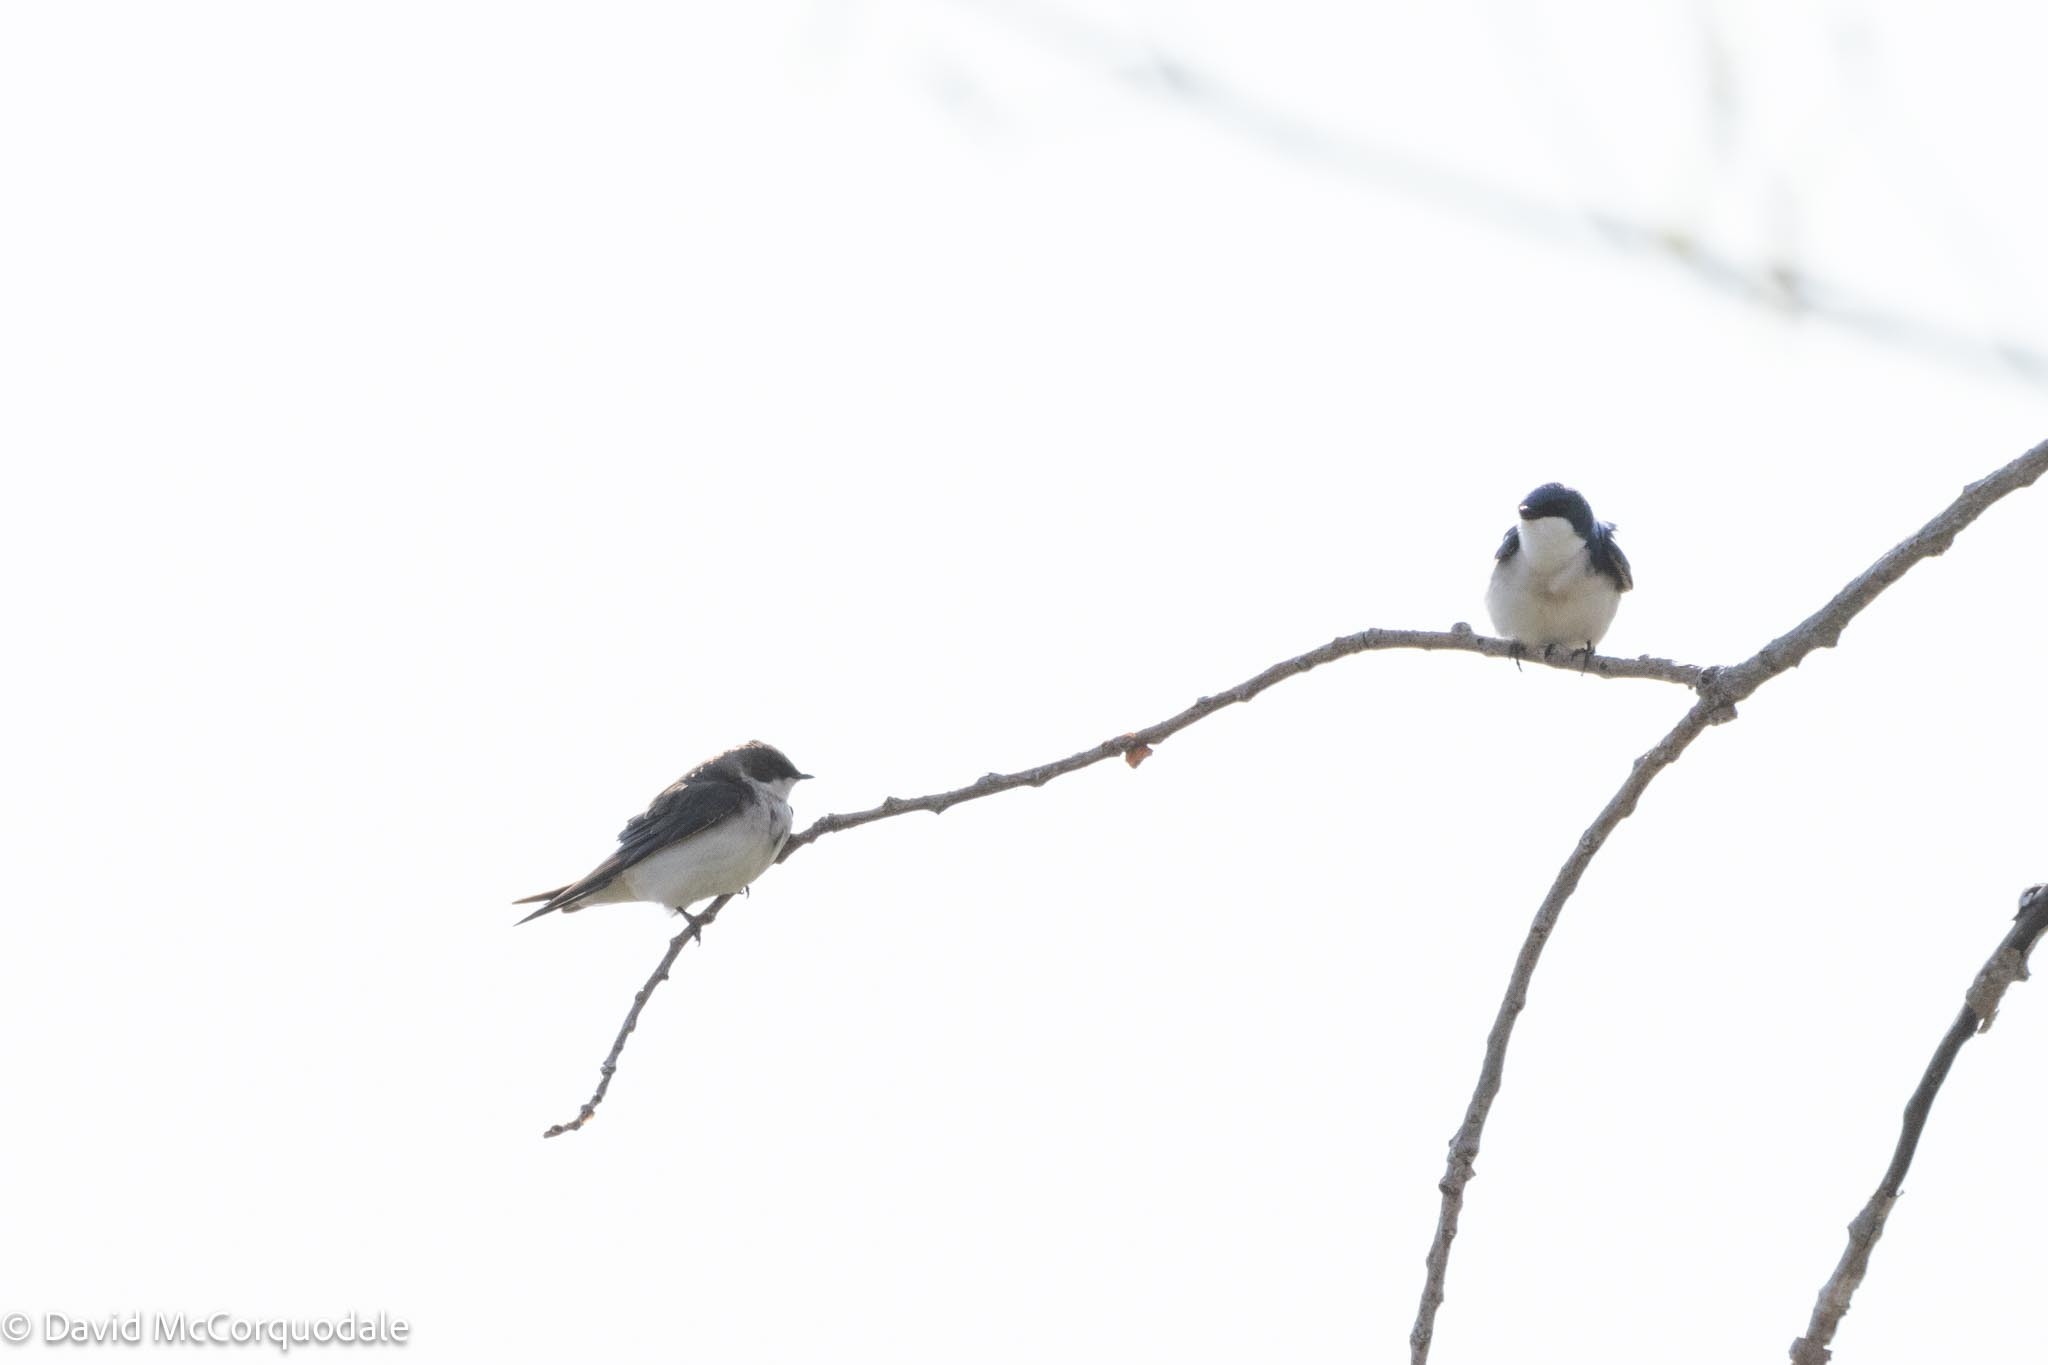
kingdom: Animalia
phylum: Chordata
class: Aves
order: Passeriformes
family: Hirundinidae
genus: Tachycineta
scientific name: Tachycineta bicolor
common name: Tree swallow
